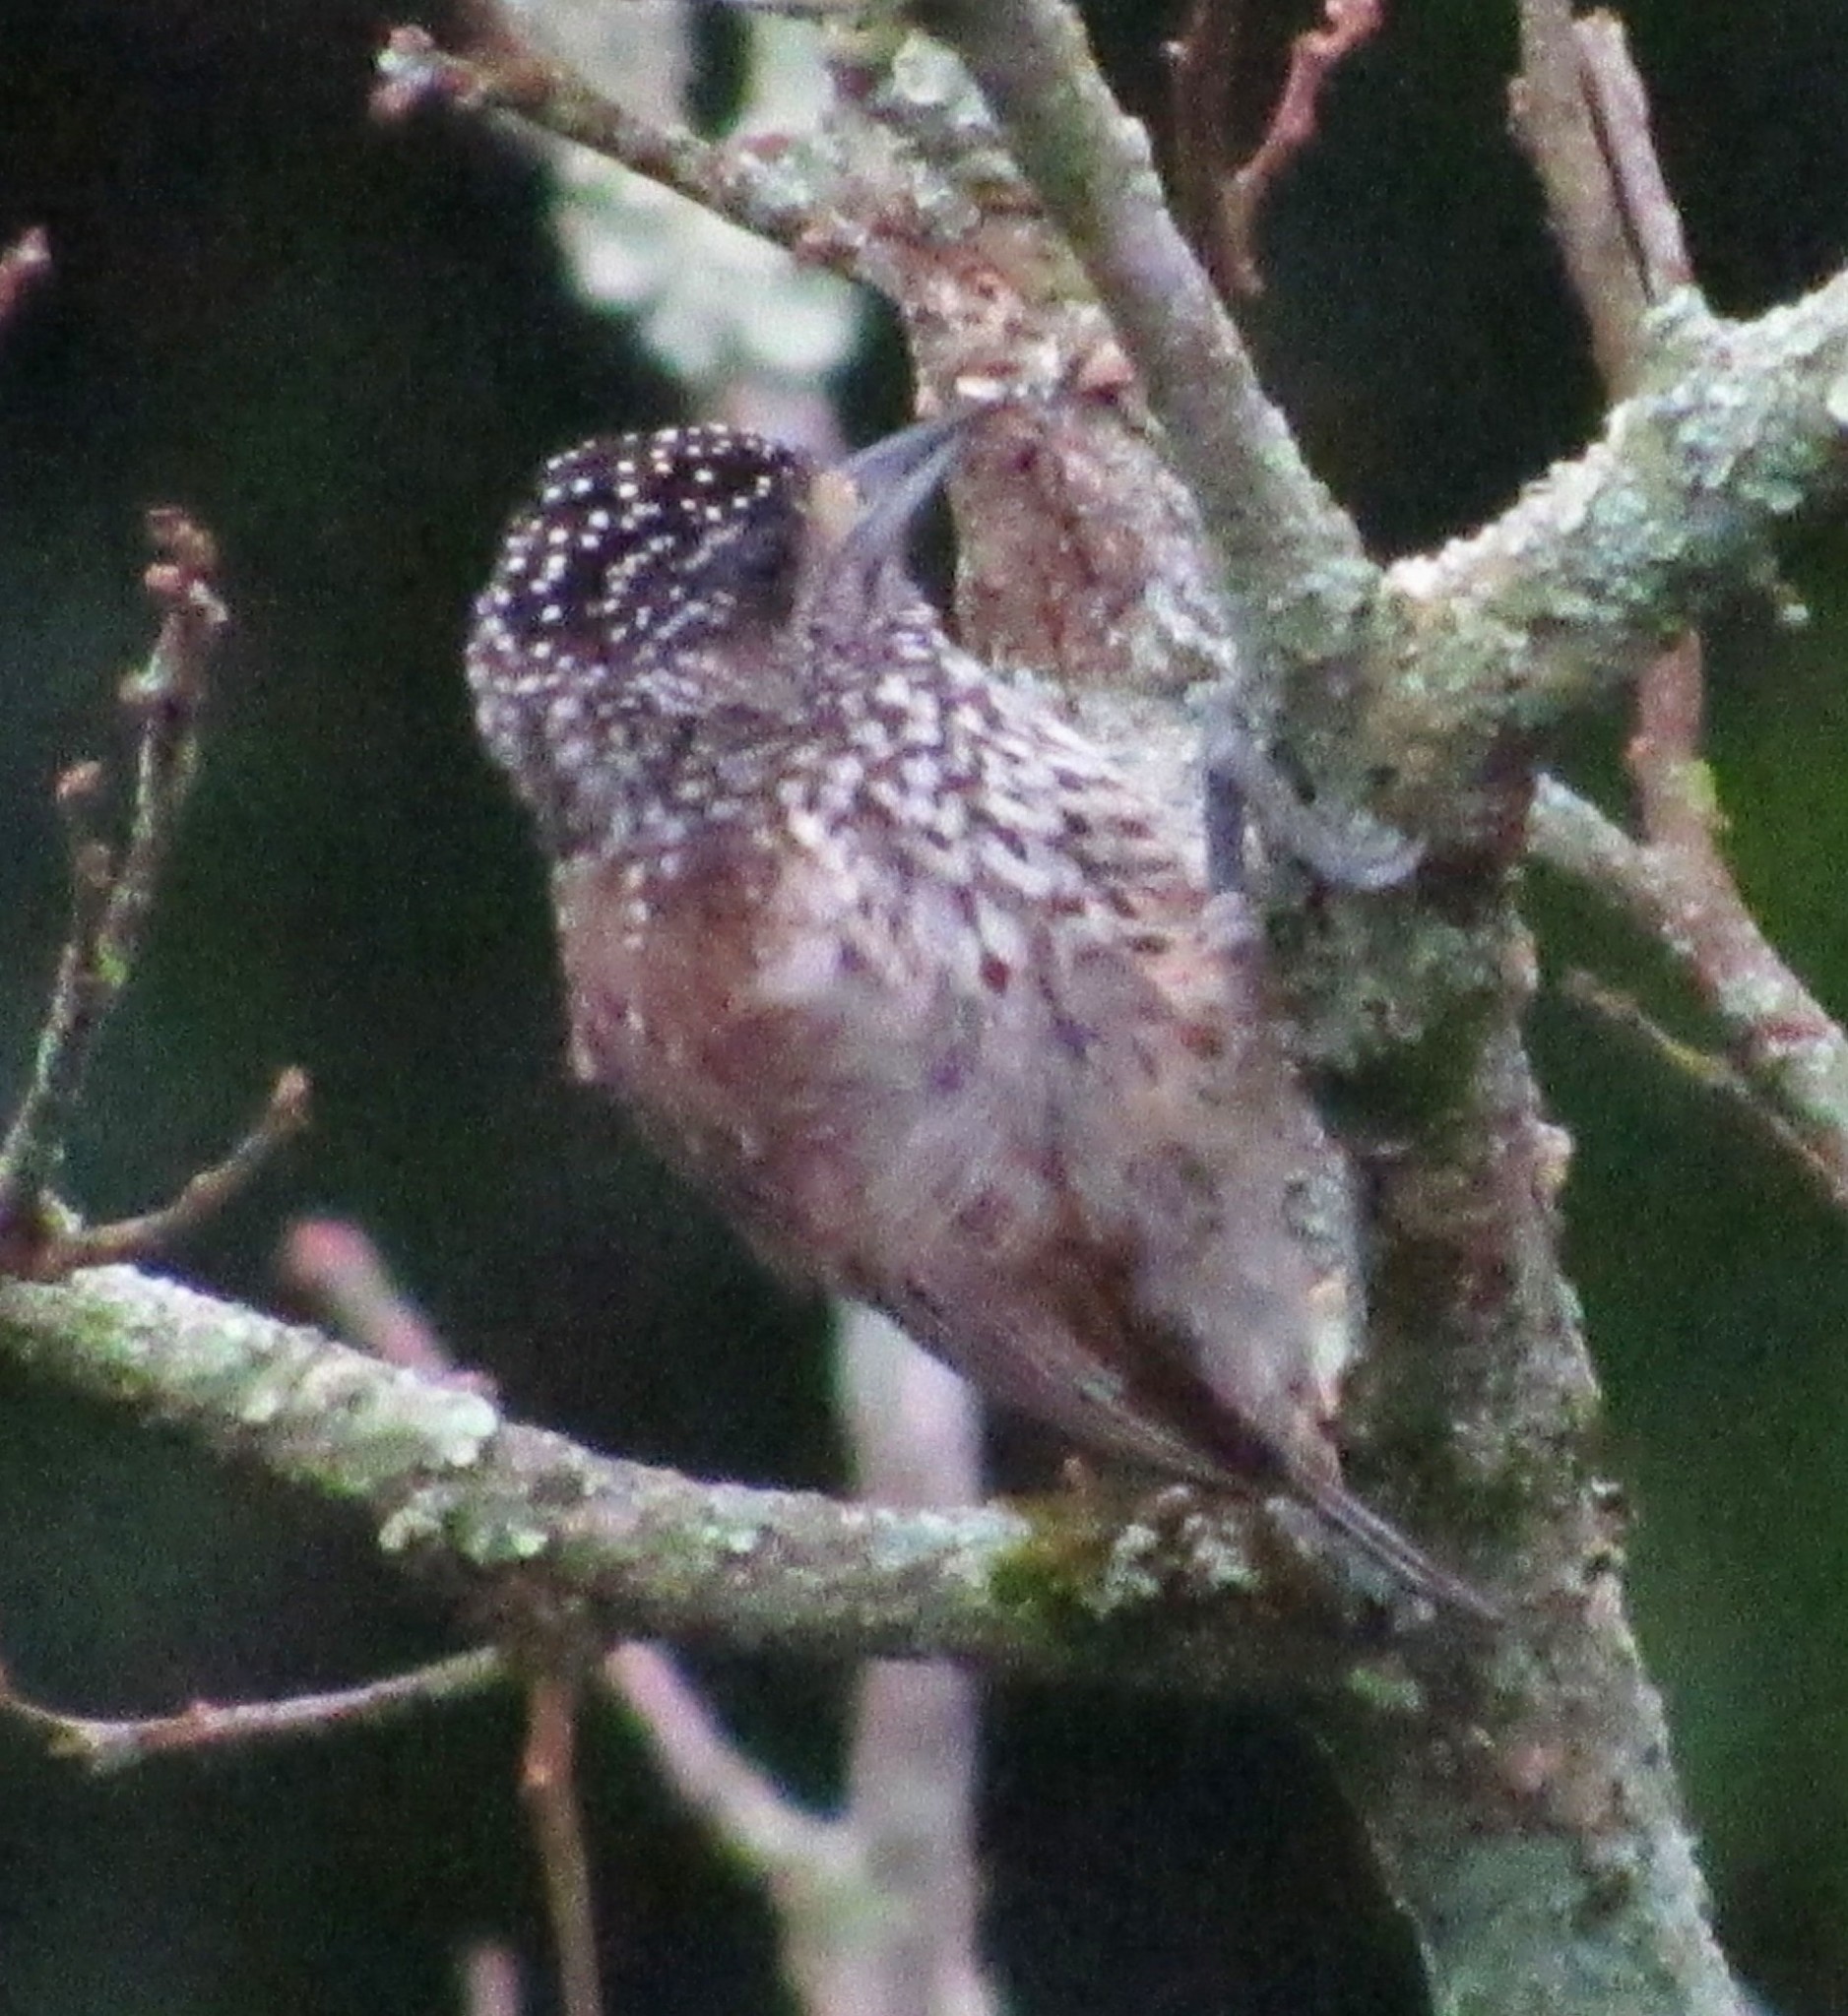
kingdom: Animalia
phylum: Chordata
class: Aves
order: Piciformes
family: Picidae
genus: Picumnus
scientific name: Picumnus albosquamatus
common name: White-wedged piculet
